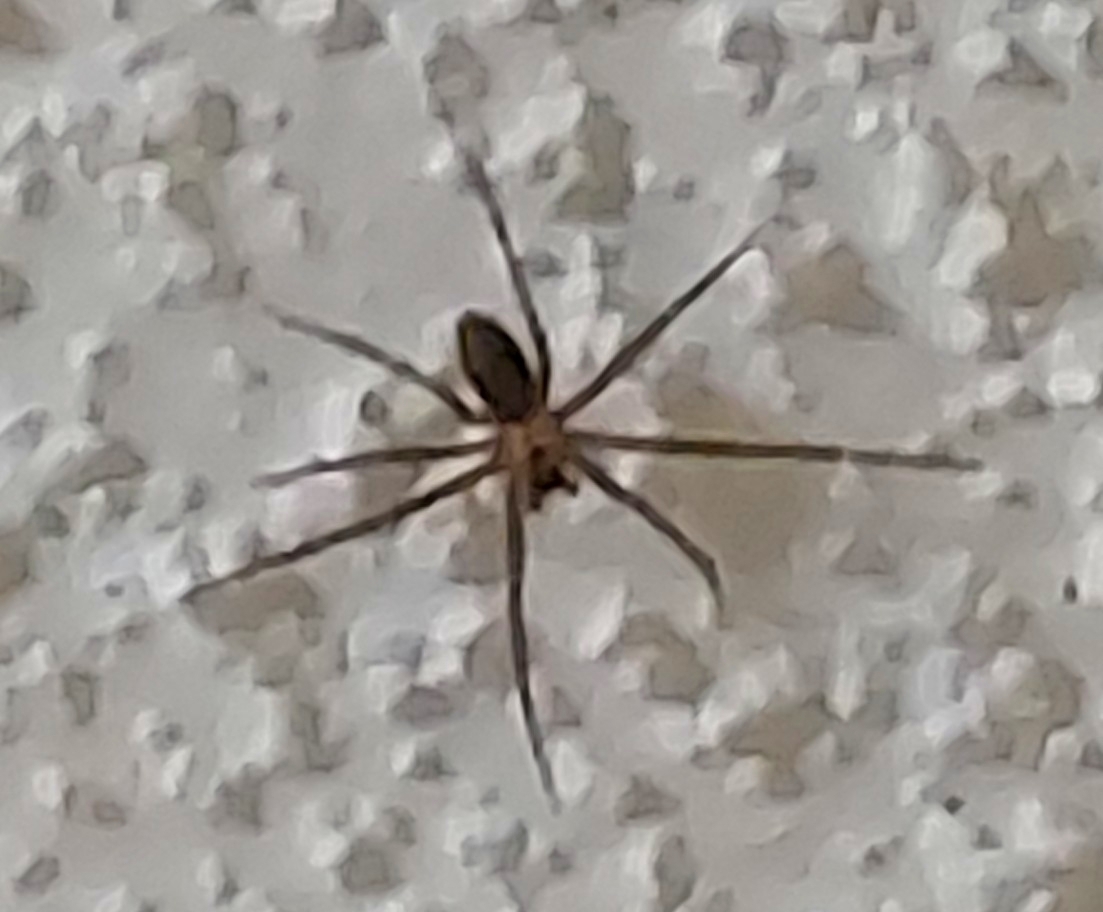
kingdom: Animalia
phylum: Arthropoda
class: Arachnida
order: Araneae
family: Sicariidae
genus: Loxosceles
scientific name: Loxosceles reclusa
